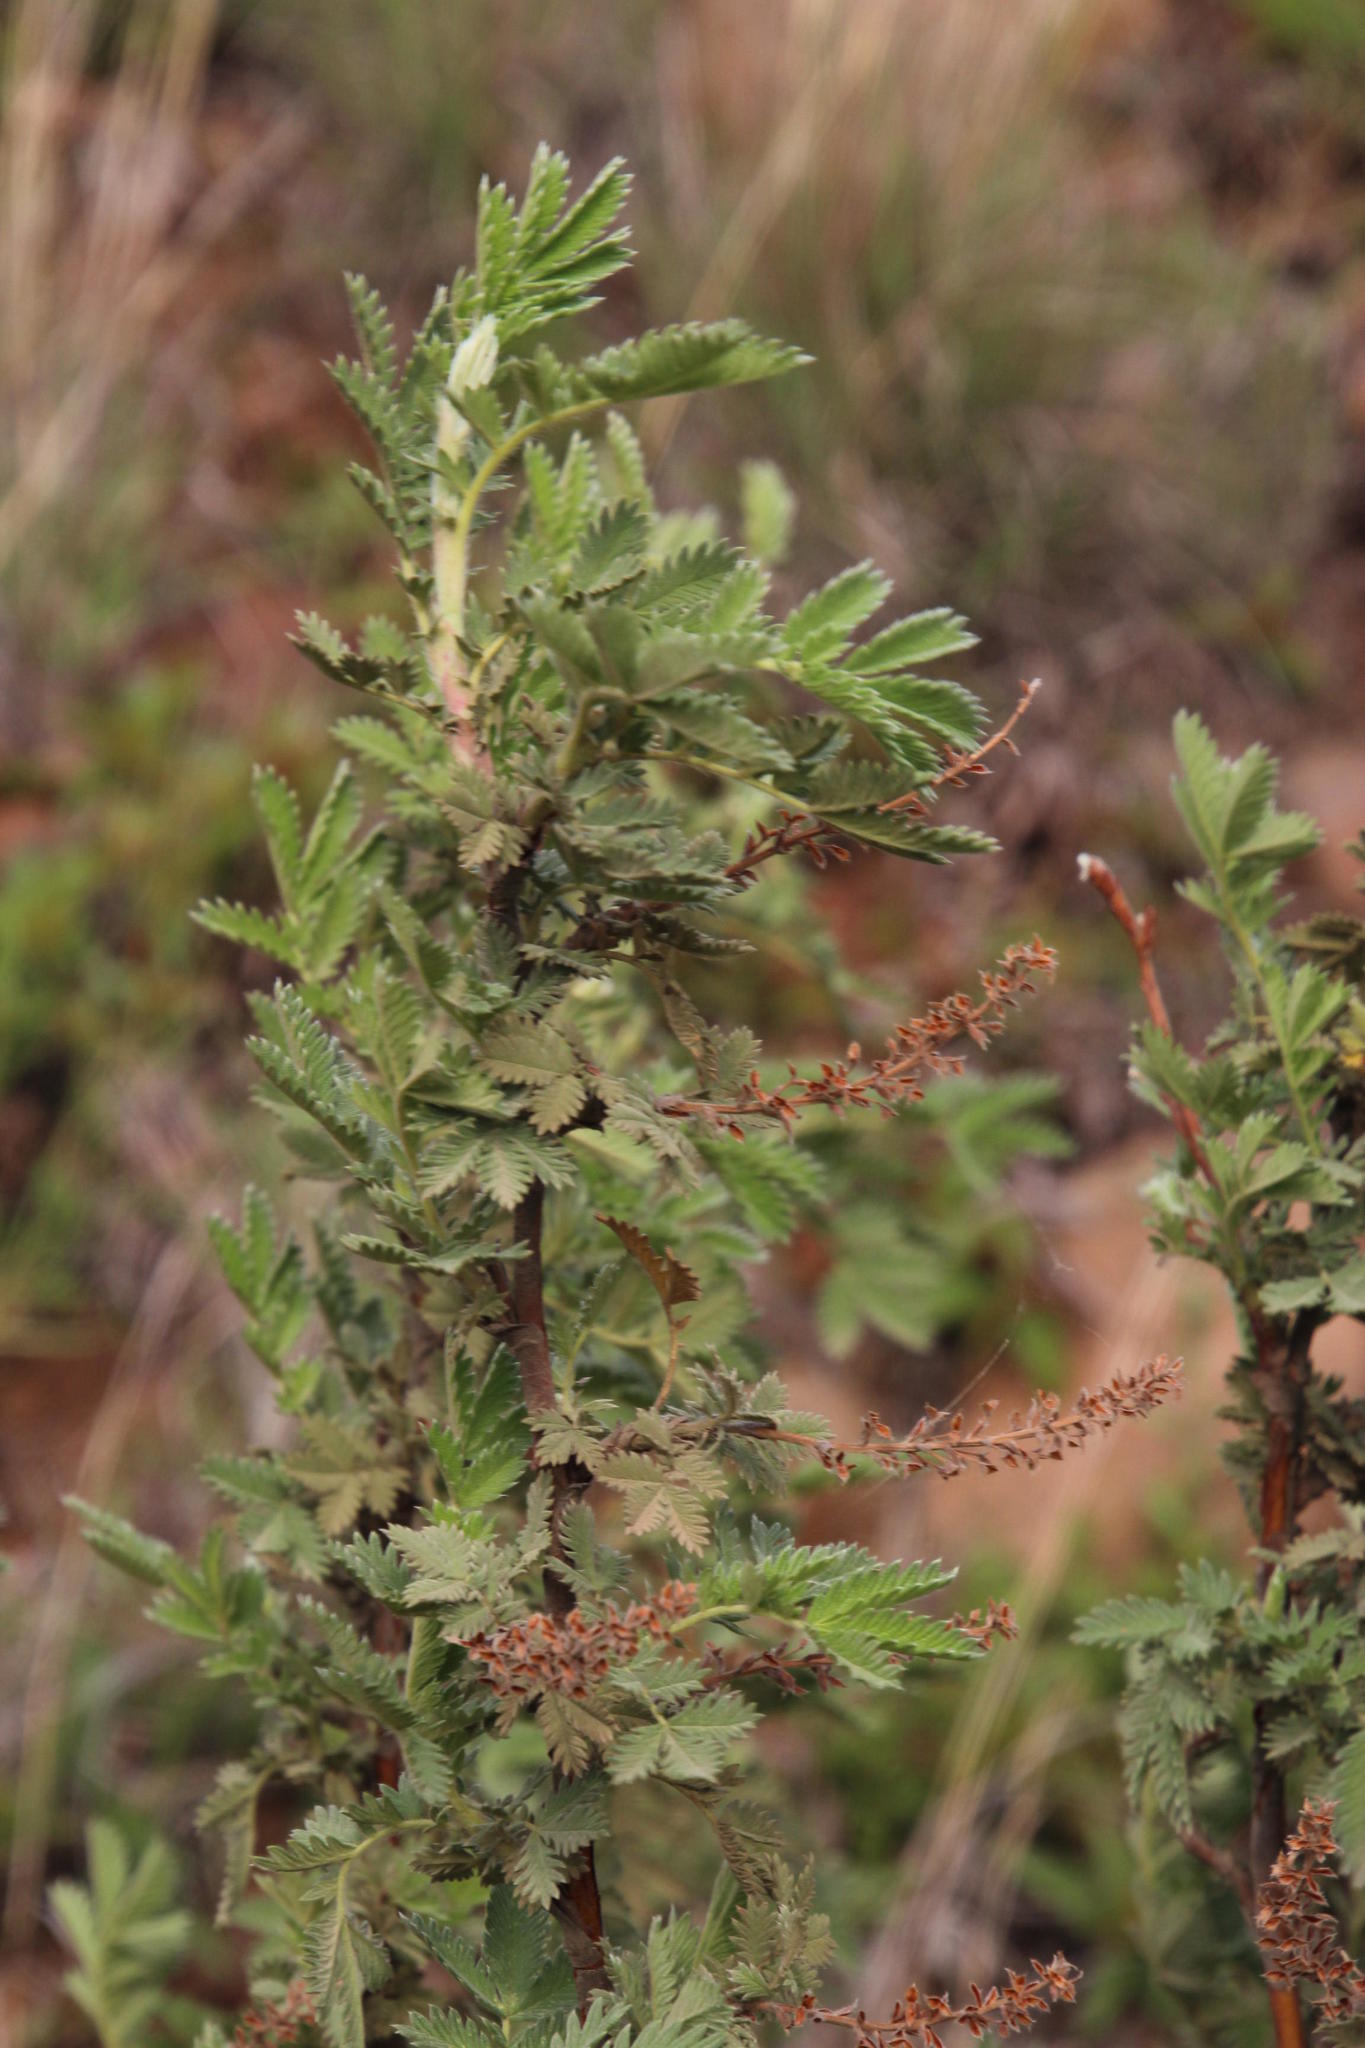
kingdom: Plantae
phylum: Tracheophyta
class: Magnoliopsida
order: Rosales
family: Rosaceae
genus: Leucosidea
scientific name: Leucosidea sericea
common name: Oldwood
